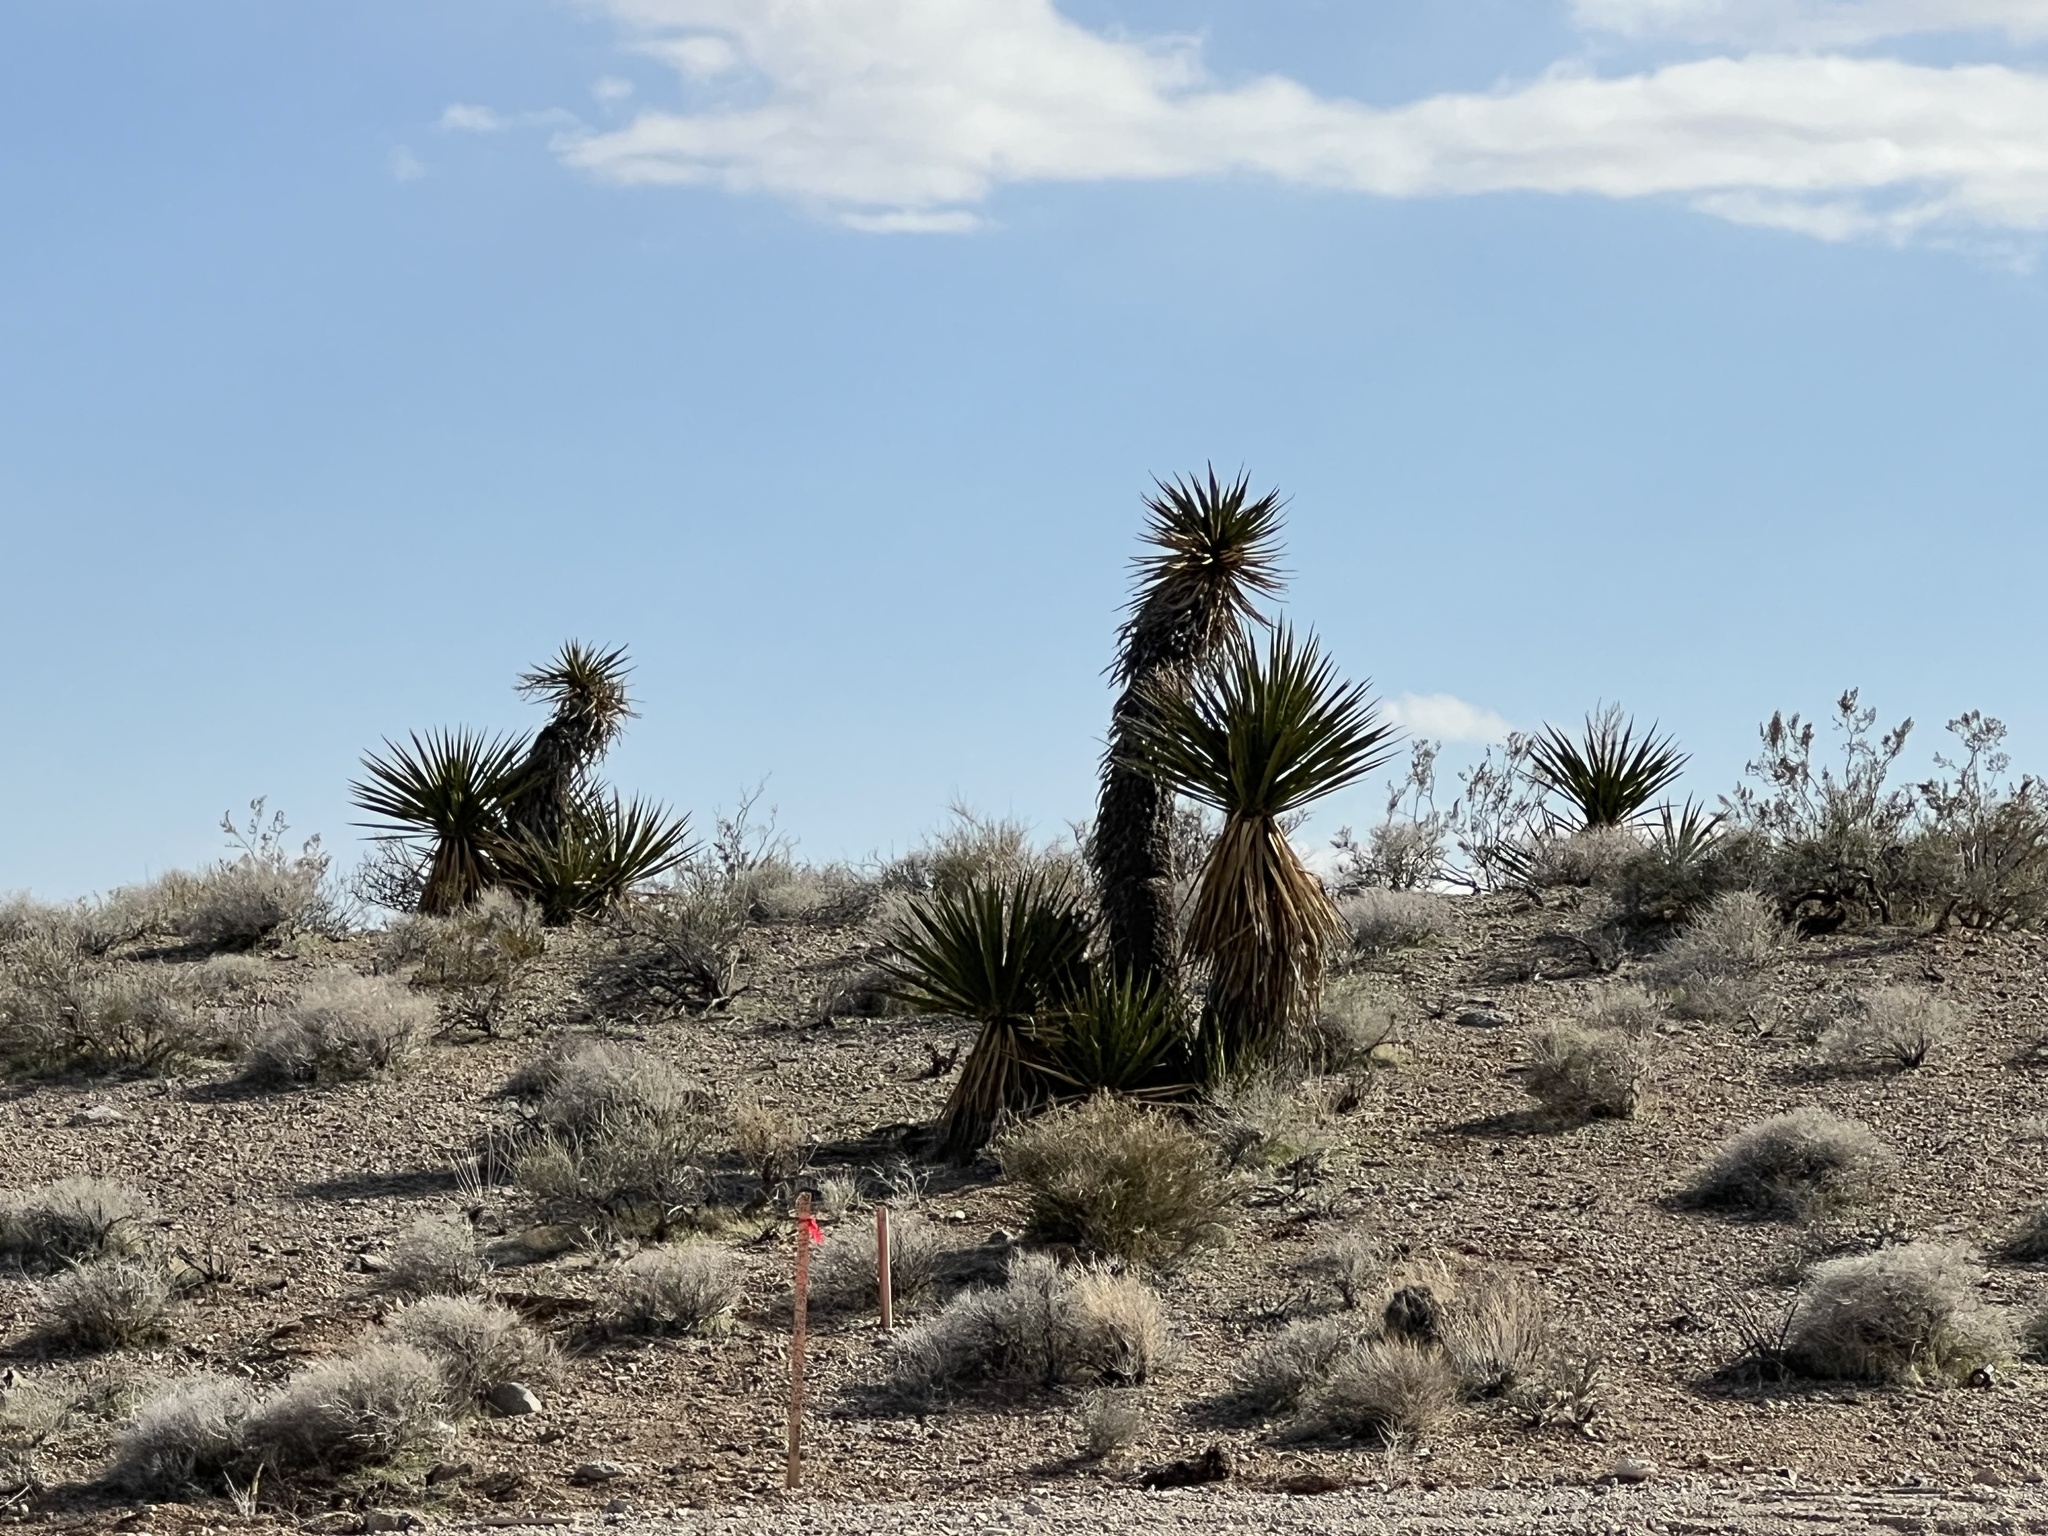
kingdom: Plantae
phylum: Tracheophyta
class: Liliopsida
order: Asparagales
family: Asparagaceae
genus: Yucca
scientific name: Yucca schidigera
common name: Mojave yucca
